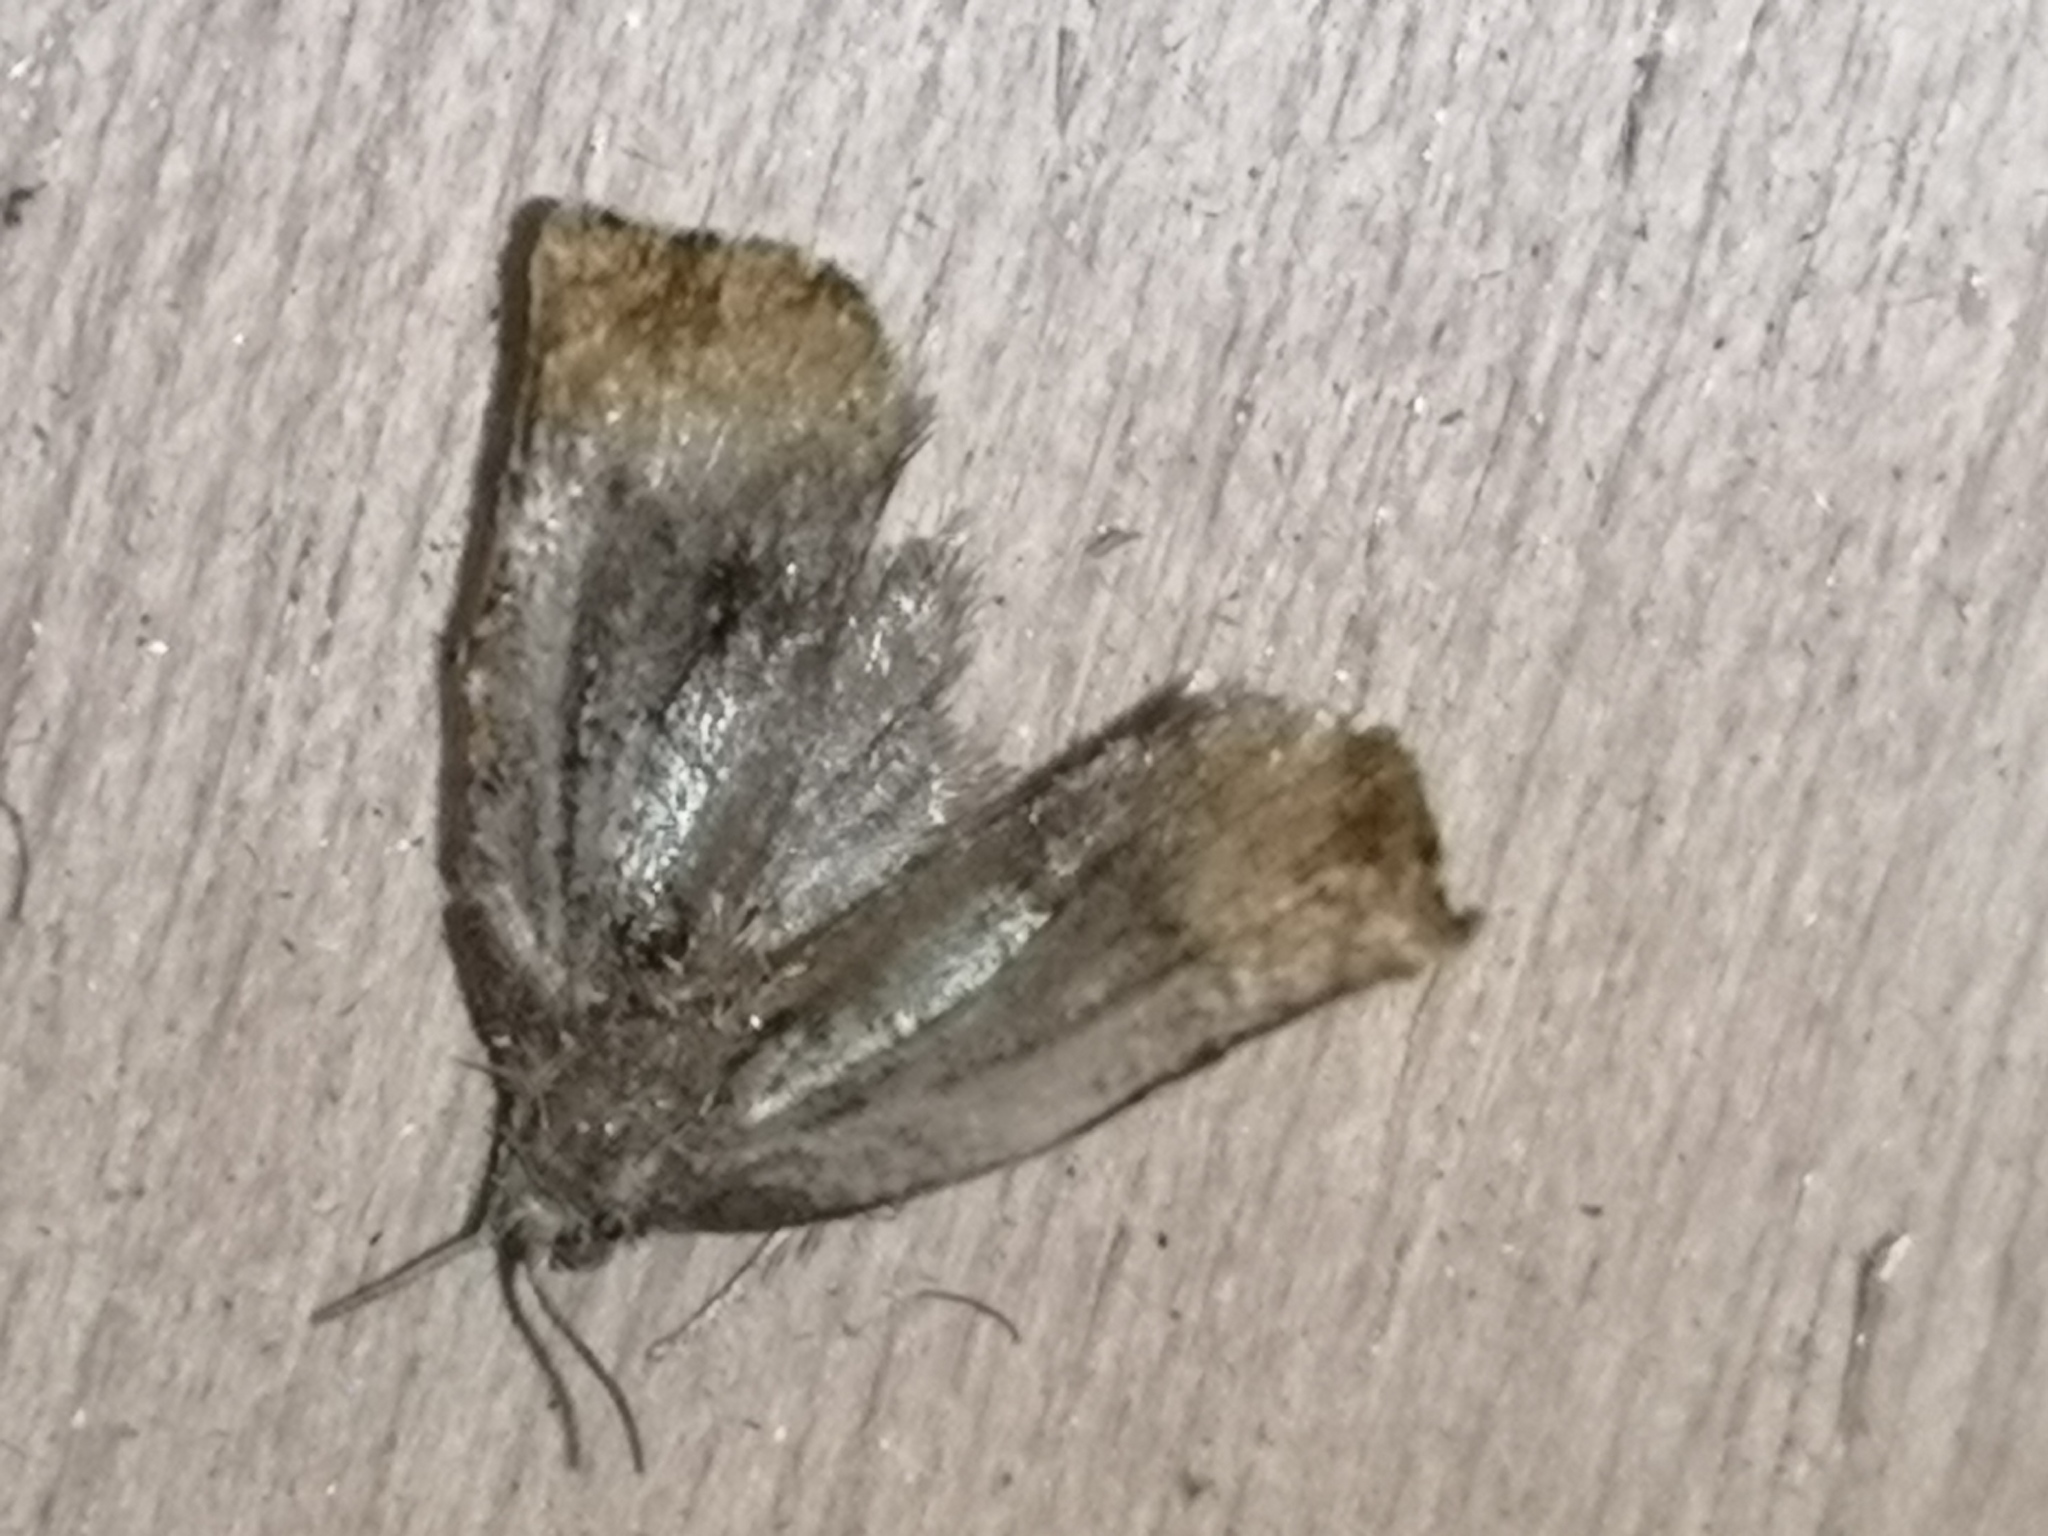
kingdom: Animalia
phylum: Arthropoda
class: Insecta
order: Lepidoptera
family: Tortricidae
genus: Archips
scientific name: Archips podana
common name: Large fruit-tree tortrix
